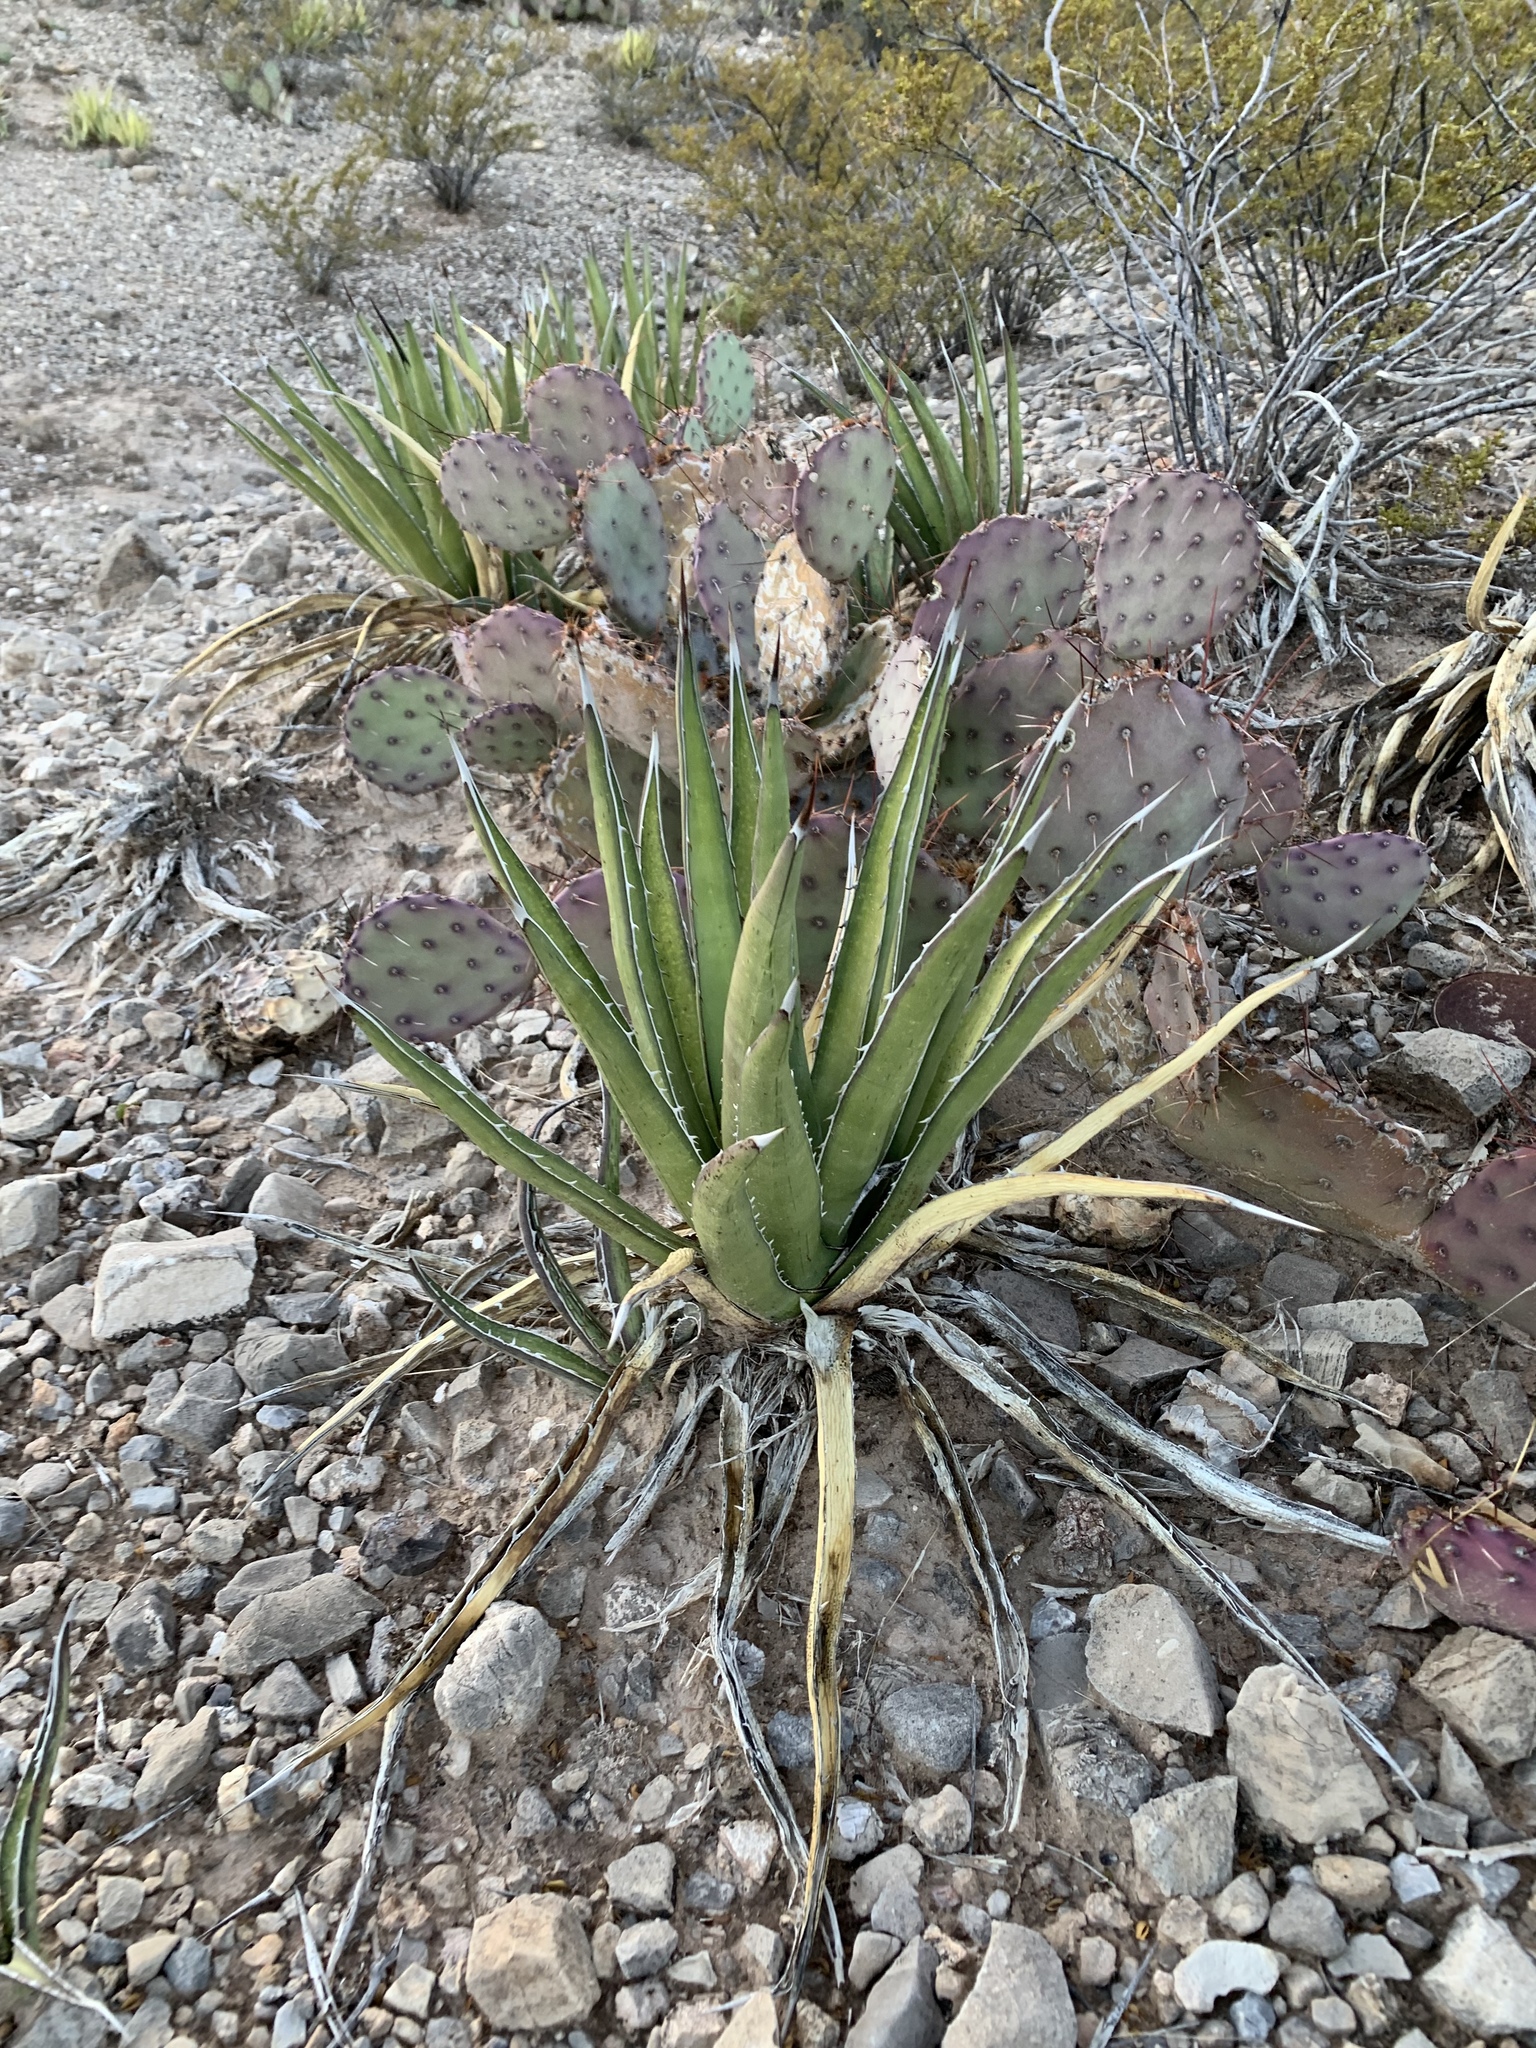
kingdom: Plantae
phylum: Tracheophyta
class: Liliopsida
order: Asparagales
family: Asparagaceae
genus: Agave
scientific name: Agave lechuguilla
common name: Lecheguilla agave
